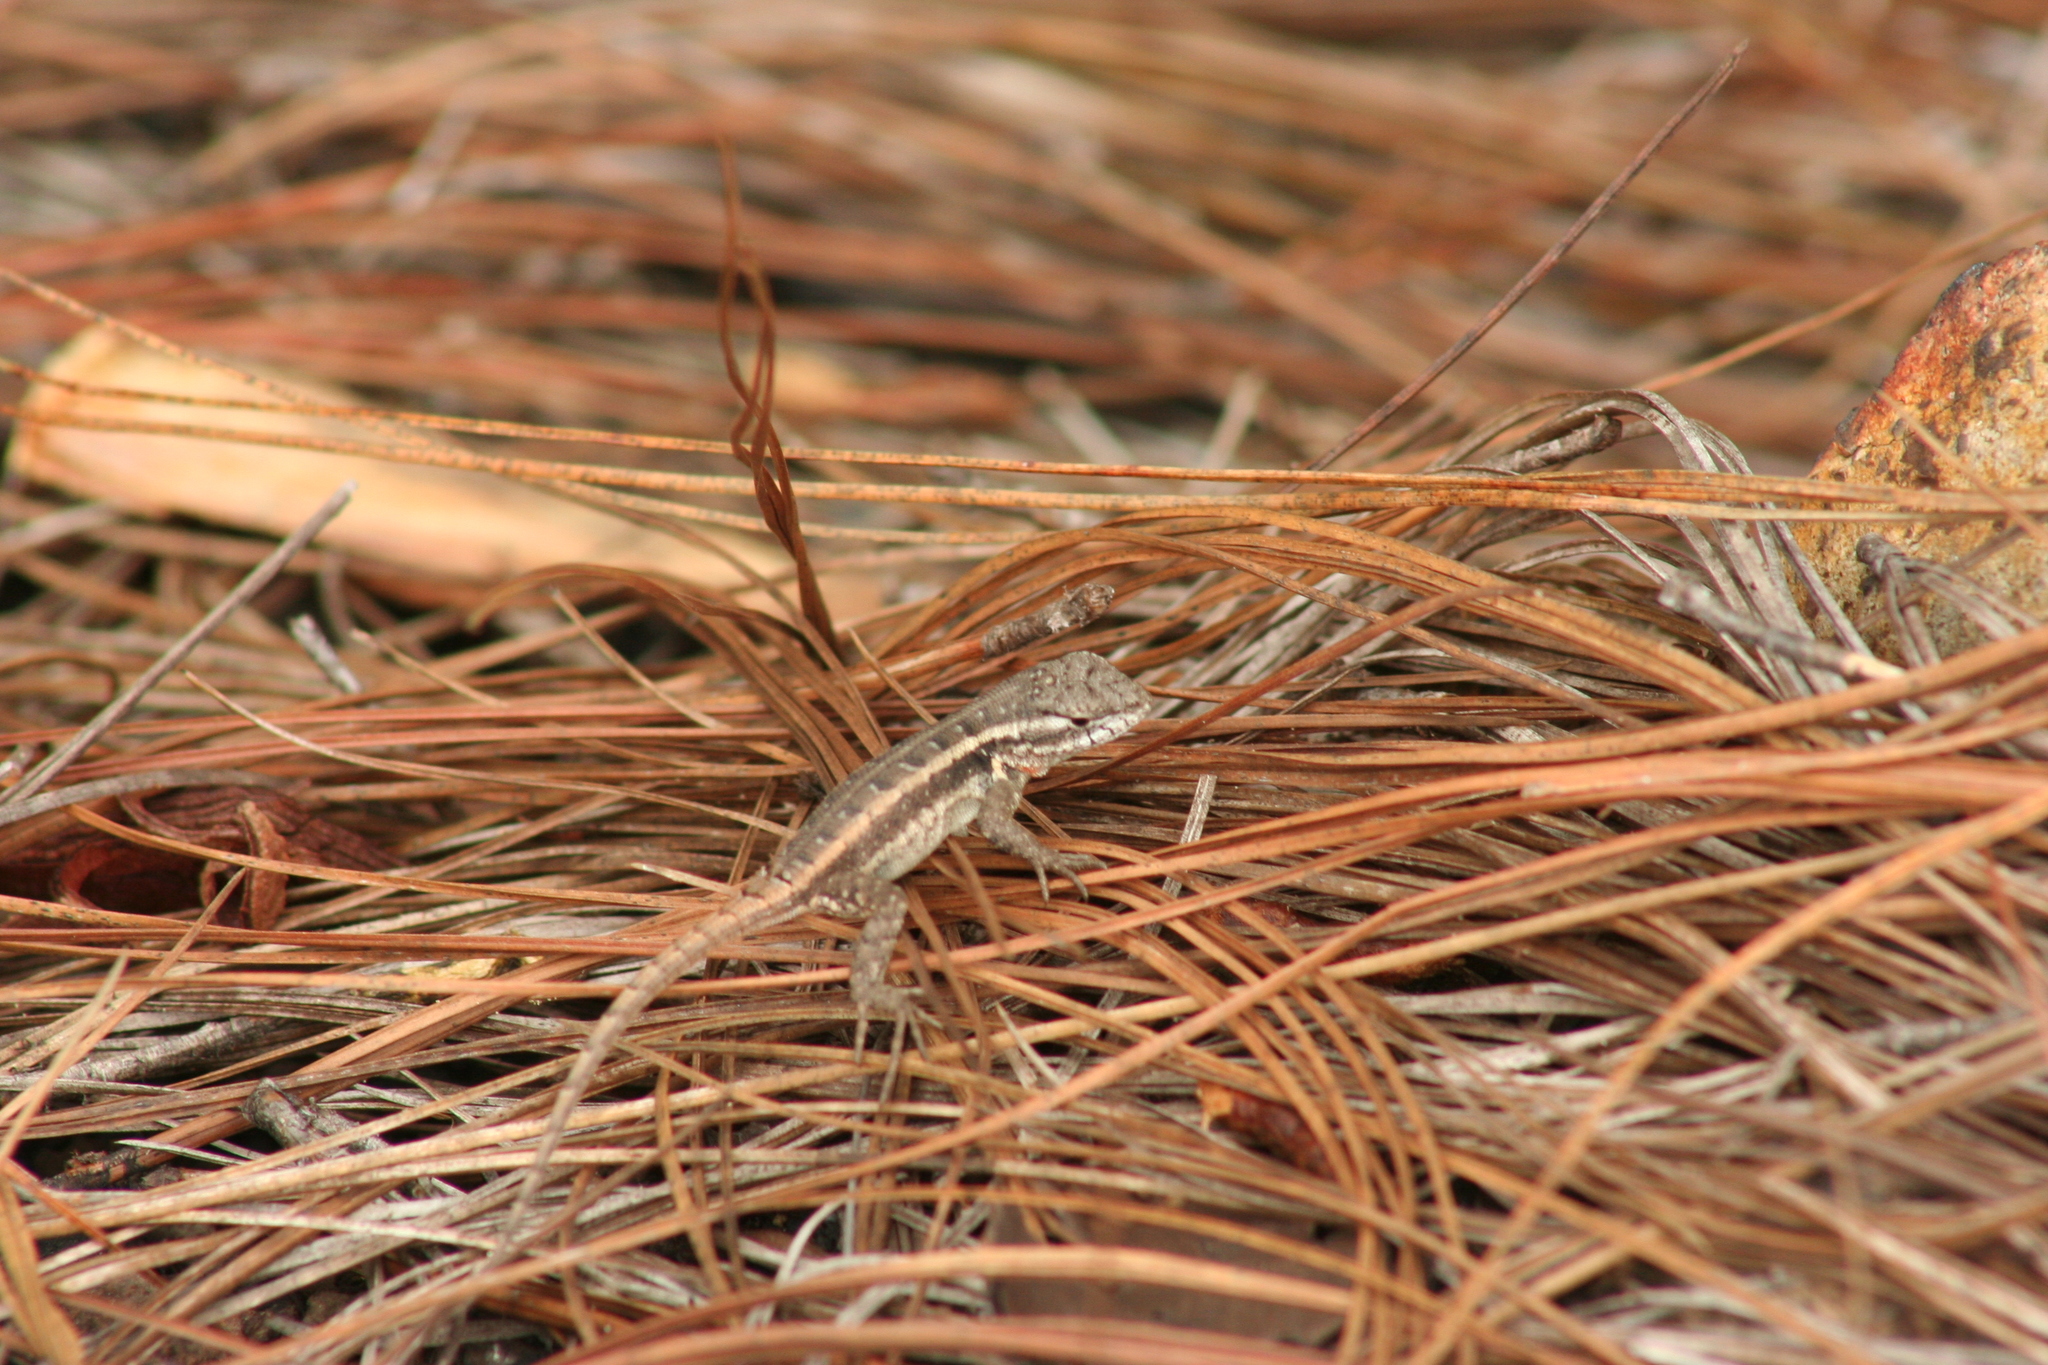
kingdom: Animalia
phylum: Chordata
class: Squamata
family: Phrynosomatidae
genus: Sceloporus
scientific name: Sceloporus variabilis
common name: Rosebelly lizard
